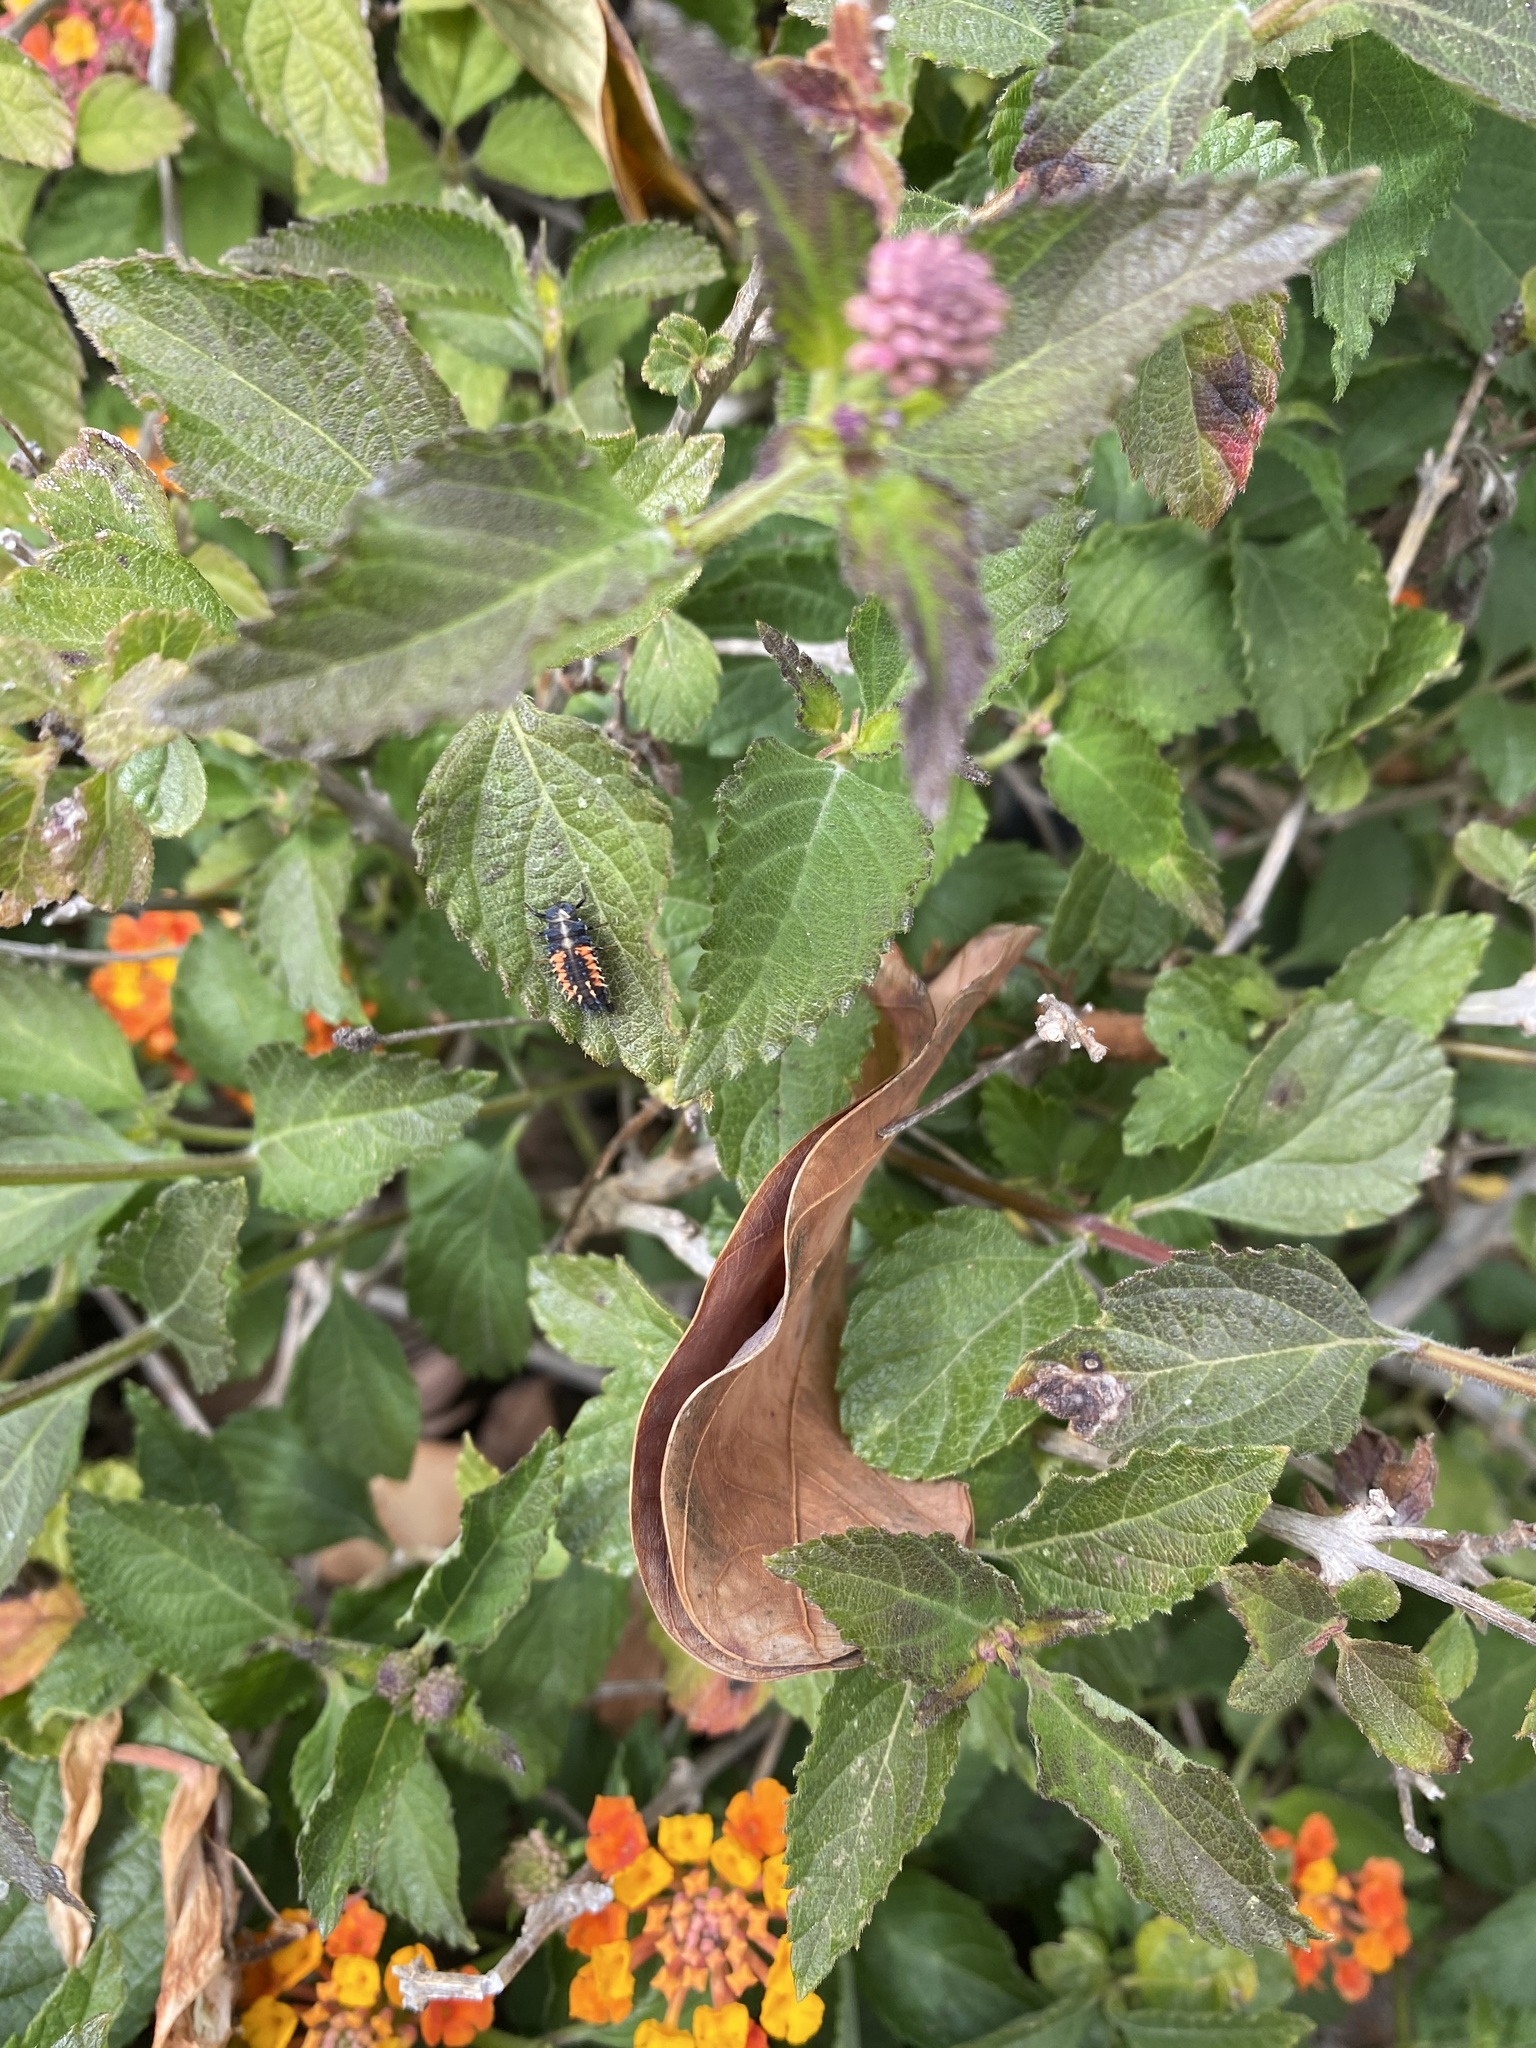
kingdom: Animalia
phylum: Arthropoda
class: Insecta
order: Coleoptera
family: Coccinellidae
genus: Harmonia
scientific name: Harmonia axyridis
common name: Harlequin ladybird
